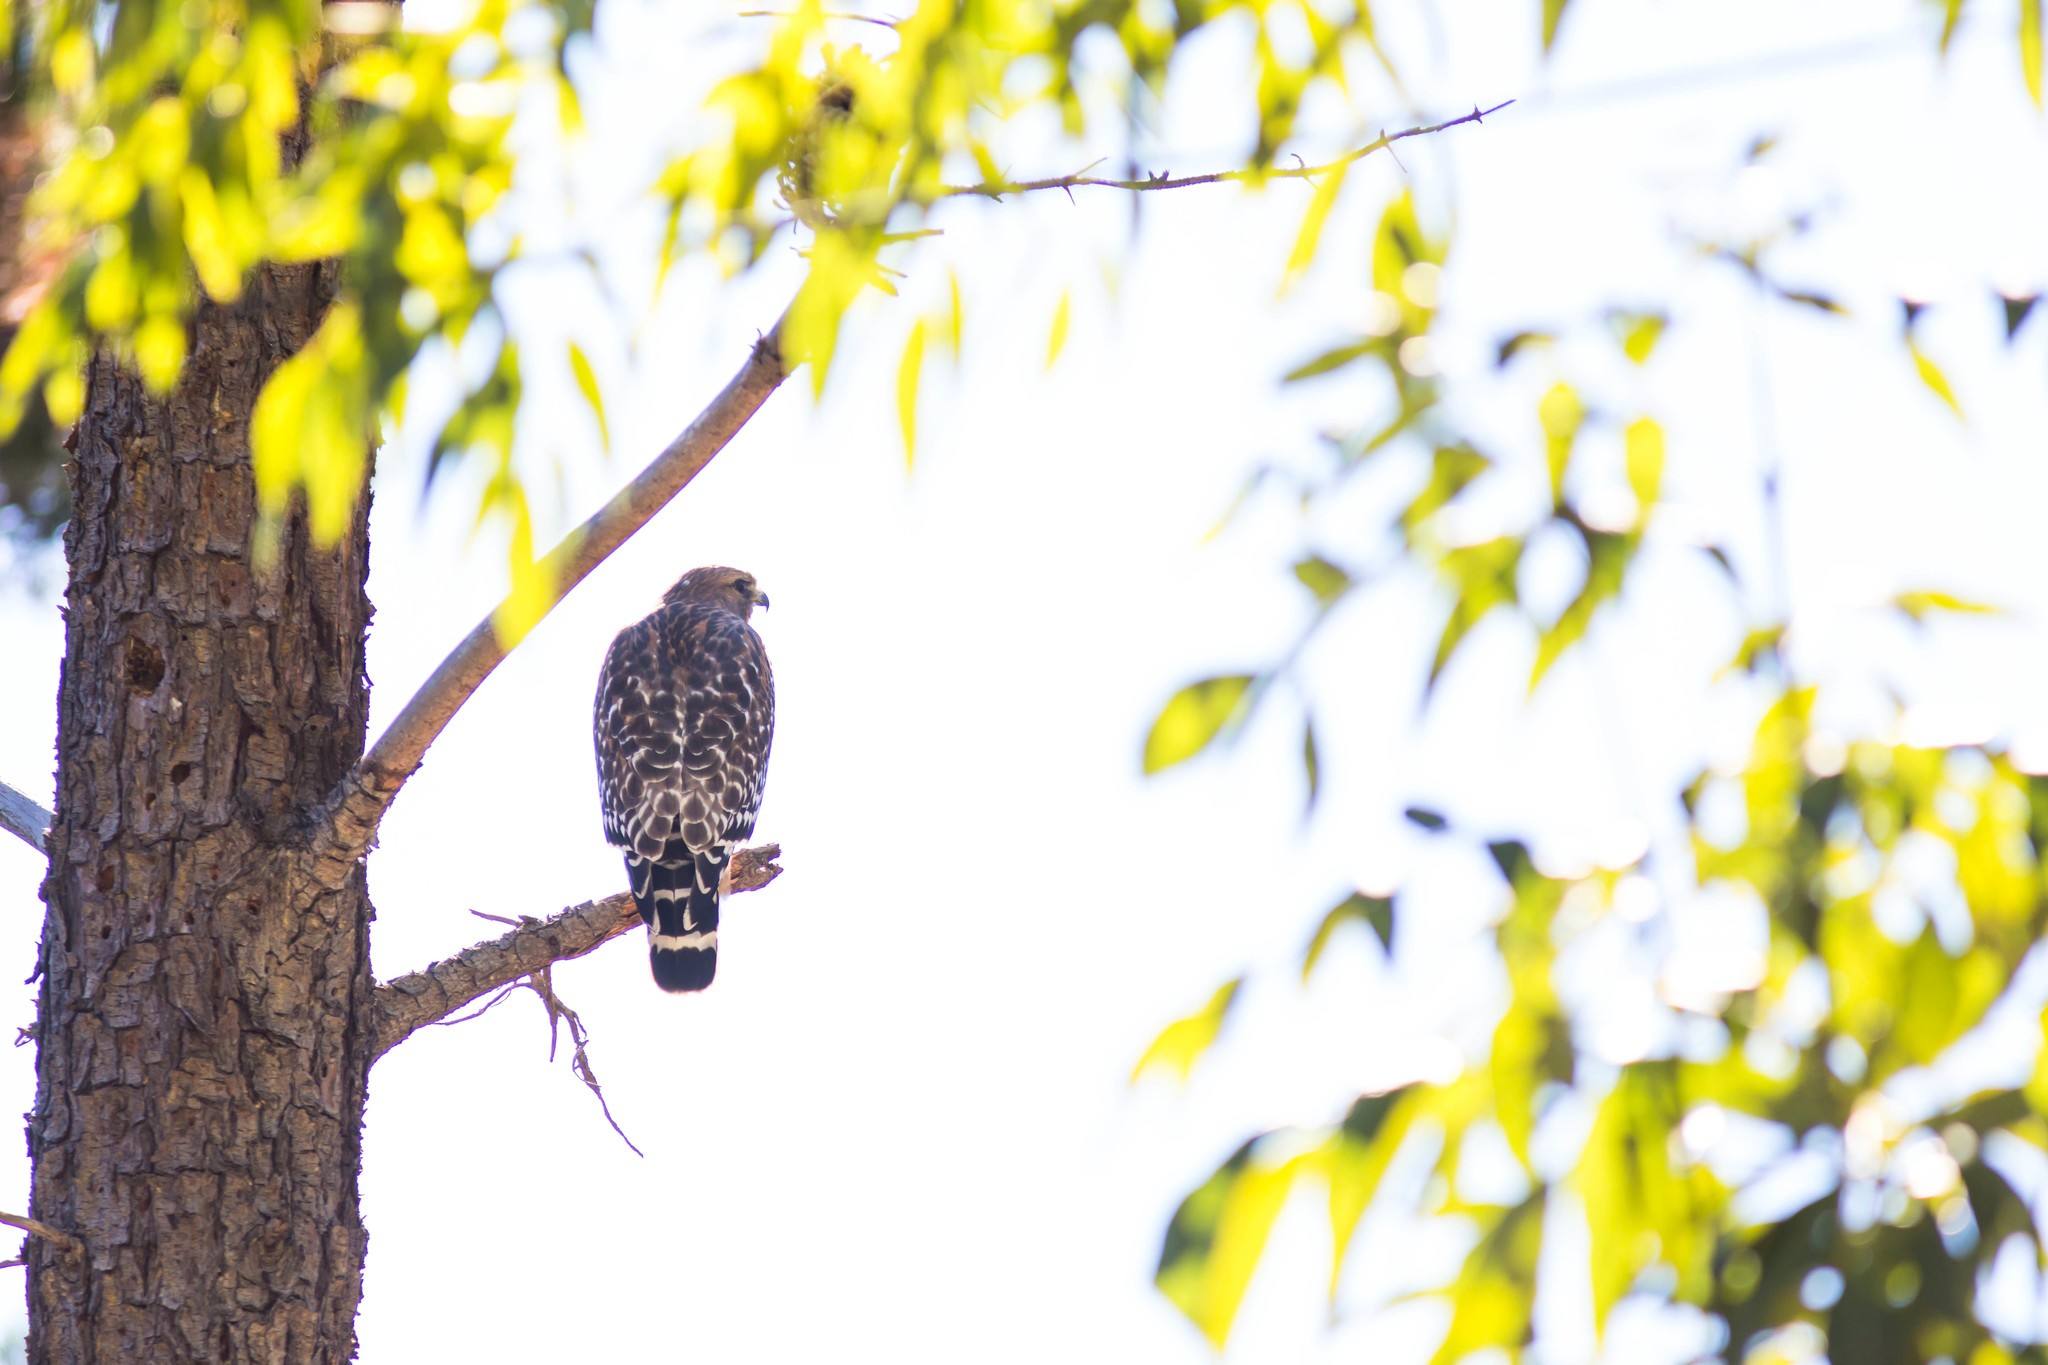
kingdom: Animalia
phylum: Chordata
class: Aves
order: Accipitriformes
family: Accipitridae
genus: Buteo
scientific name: Buteo lineatus
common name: Red-shouldered hawk
